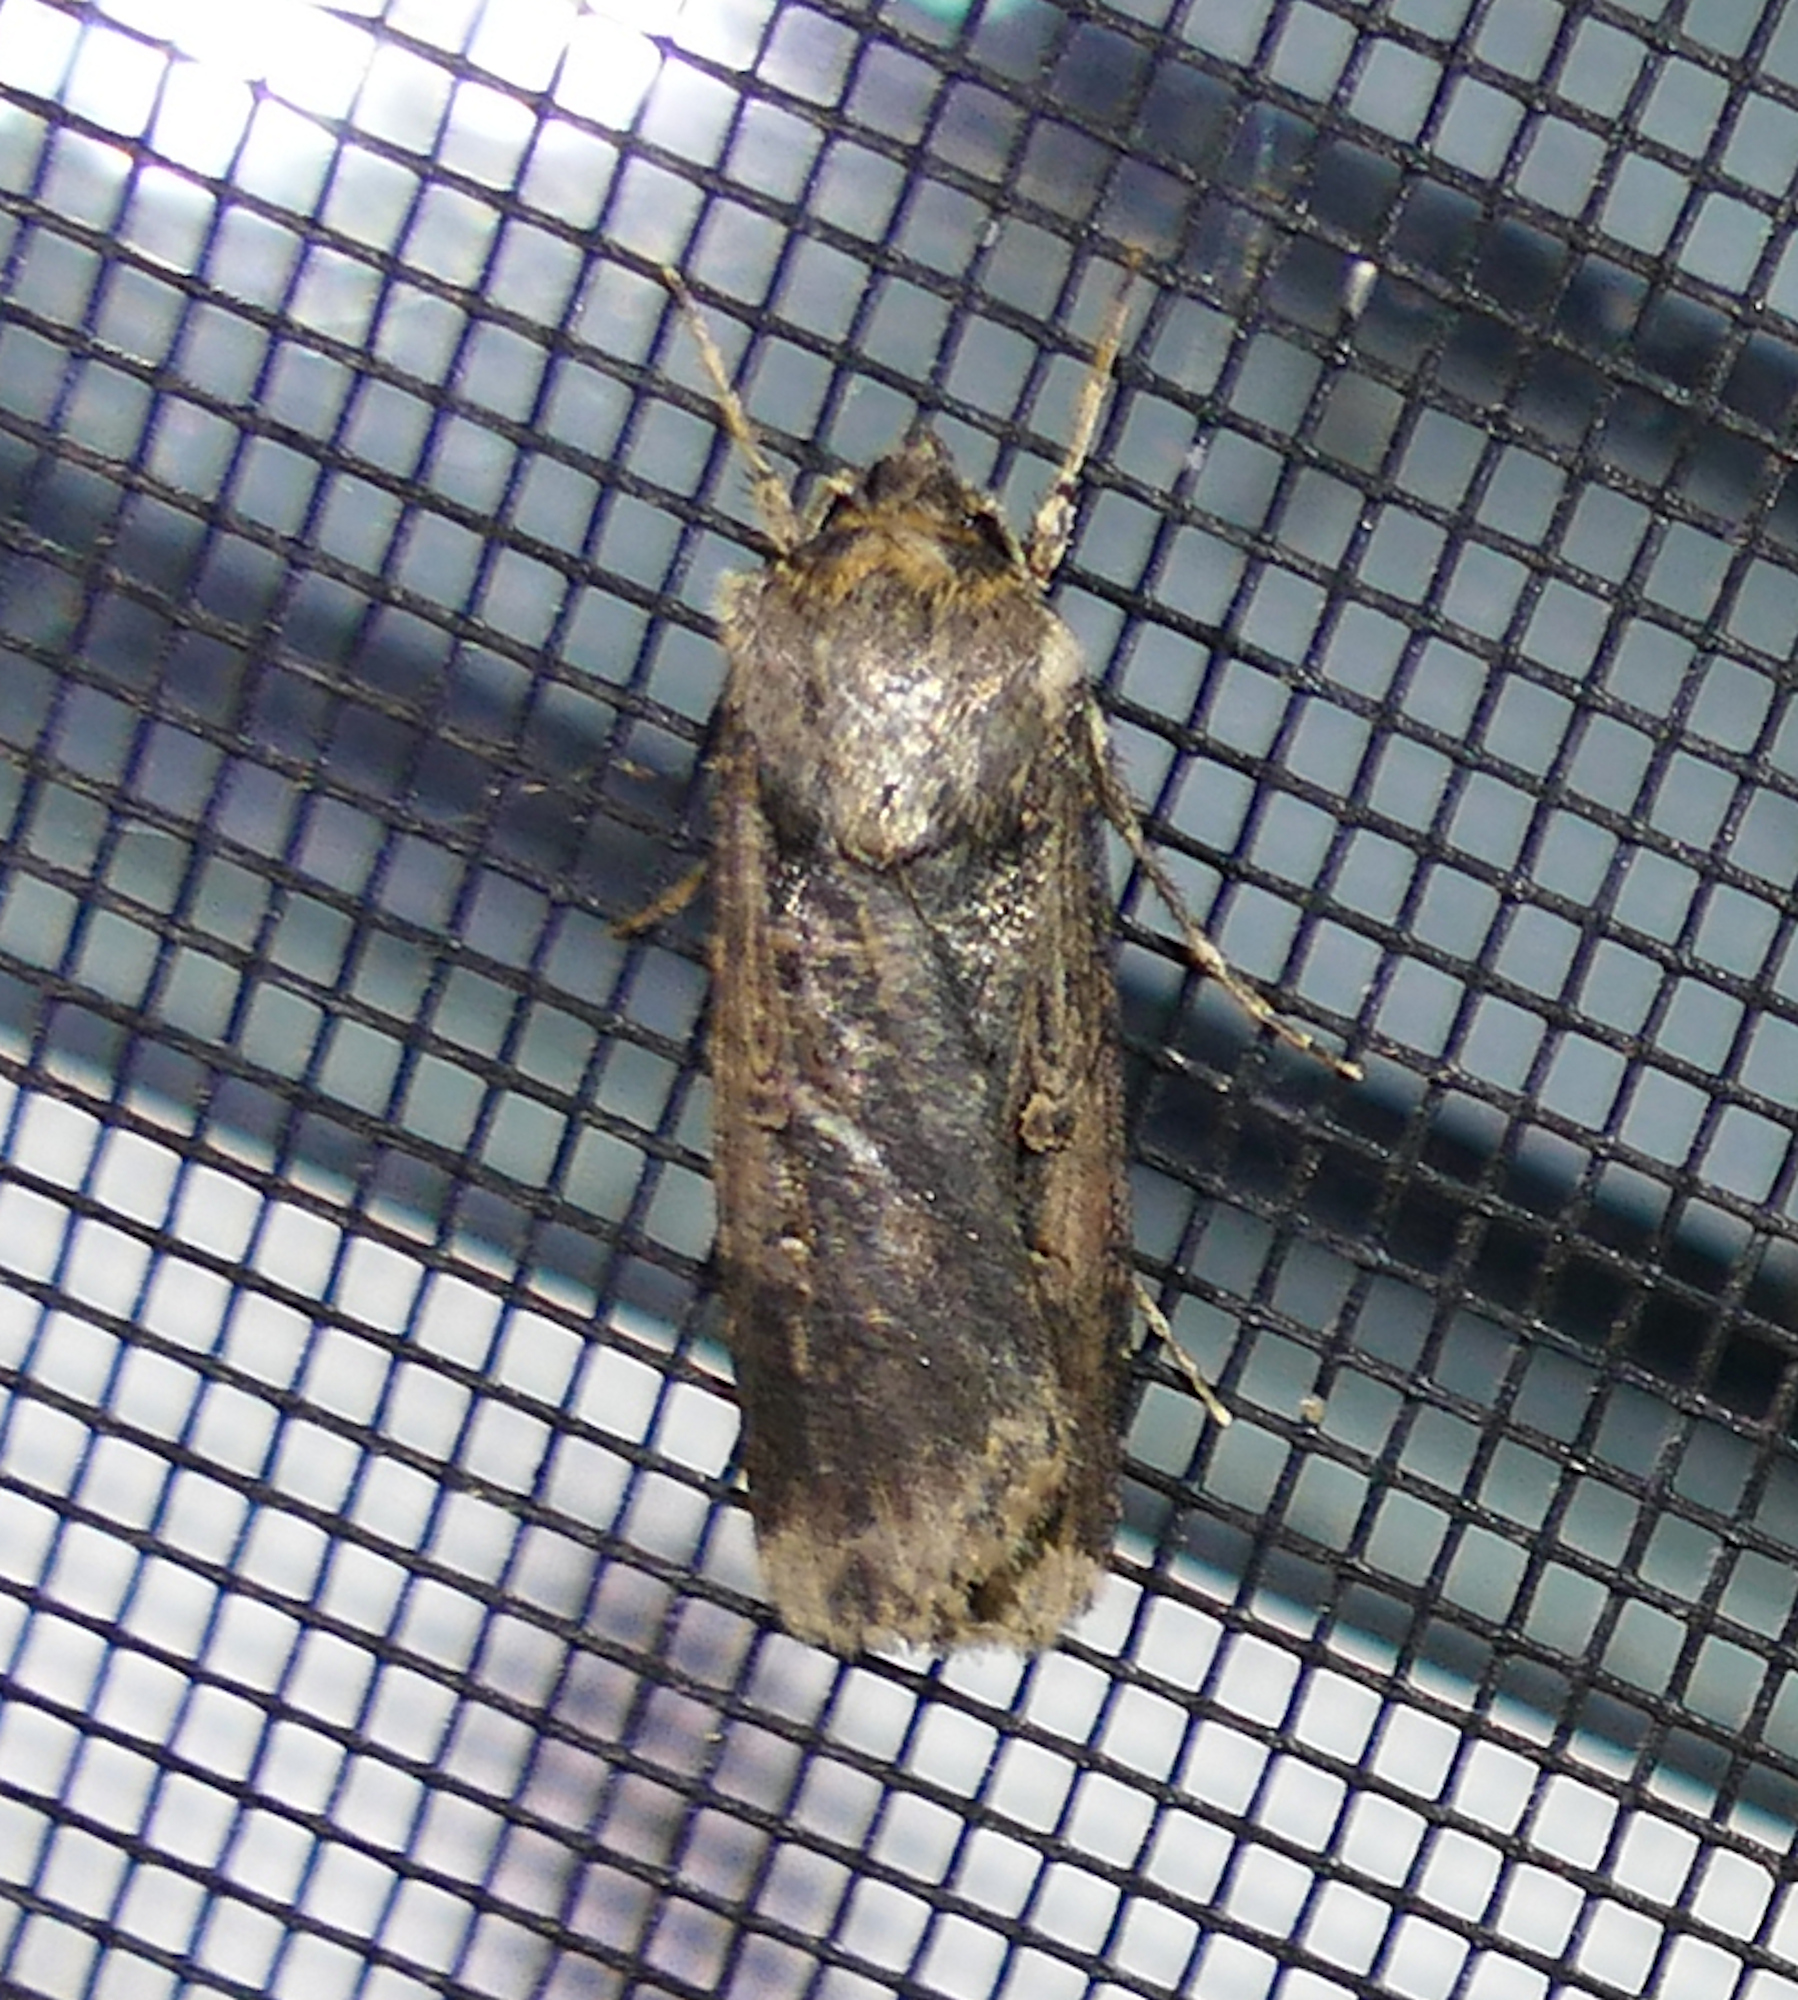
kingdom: Animalia
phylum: Arthropoda
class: Insecta
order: Lepidoptera
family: Noctuidae
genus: Feltia
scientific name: Feltia subterranea
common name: Granulate cutworm
